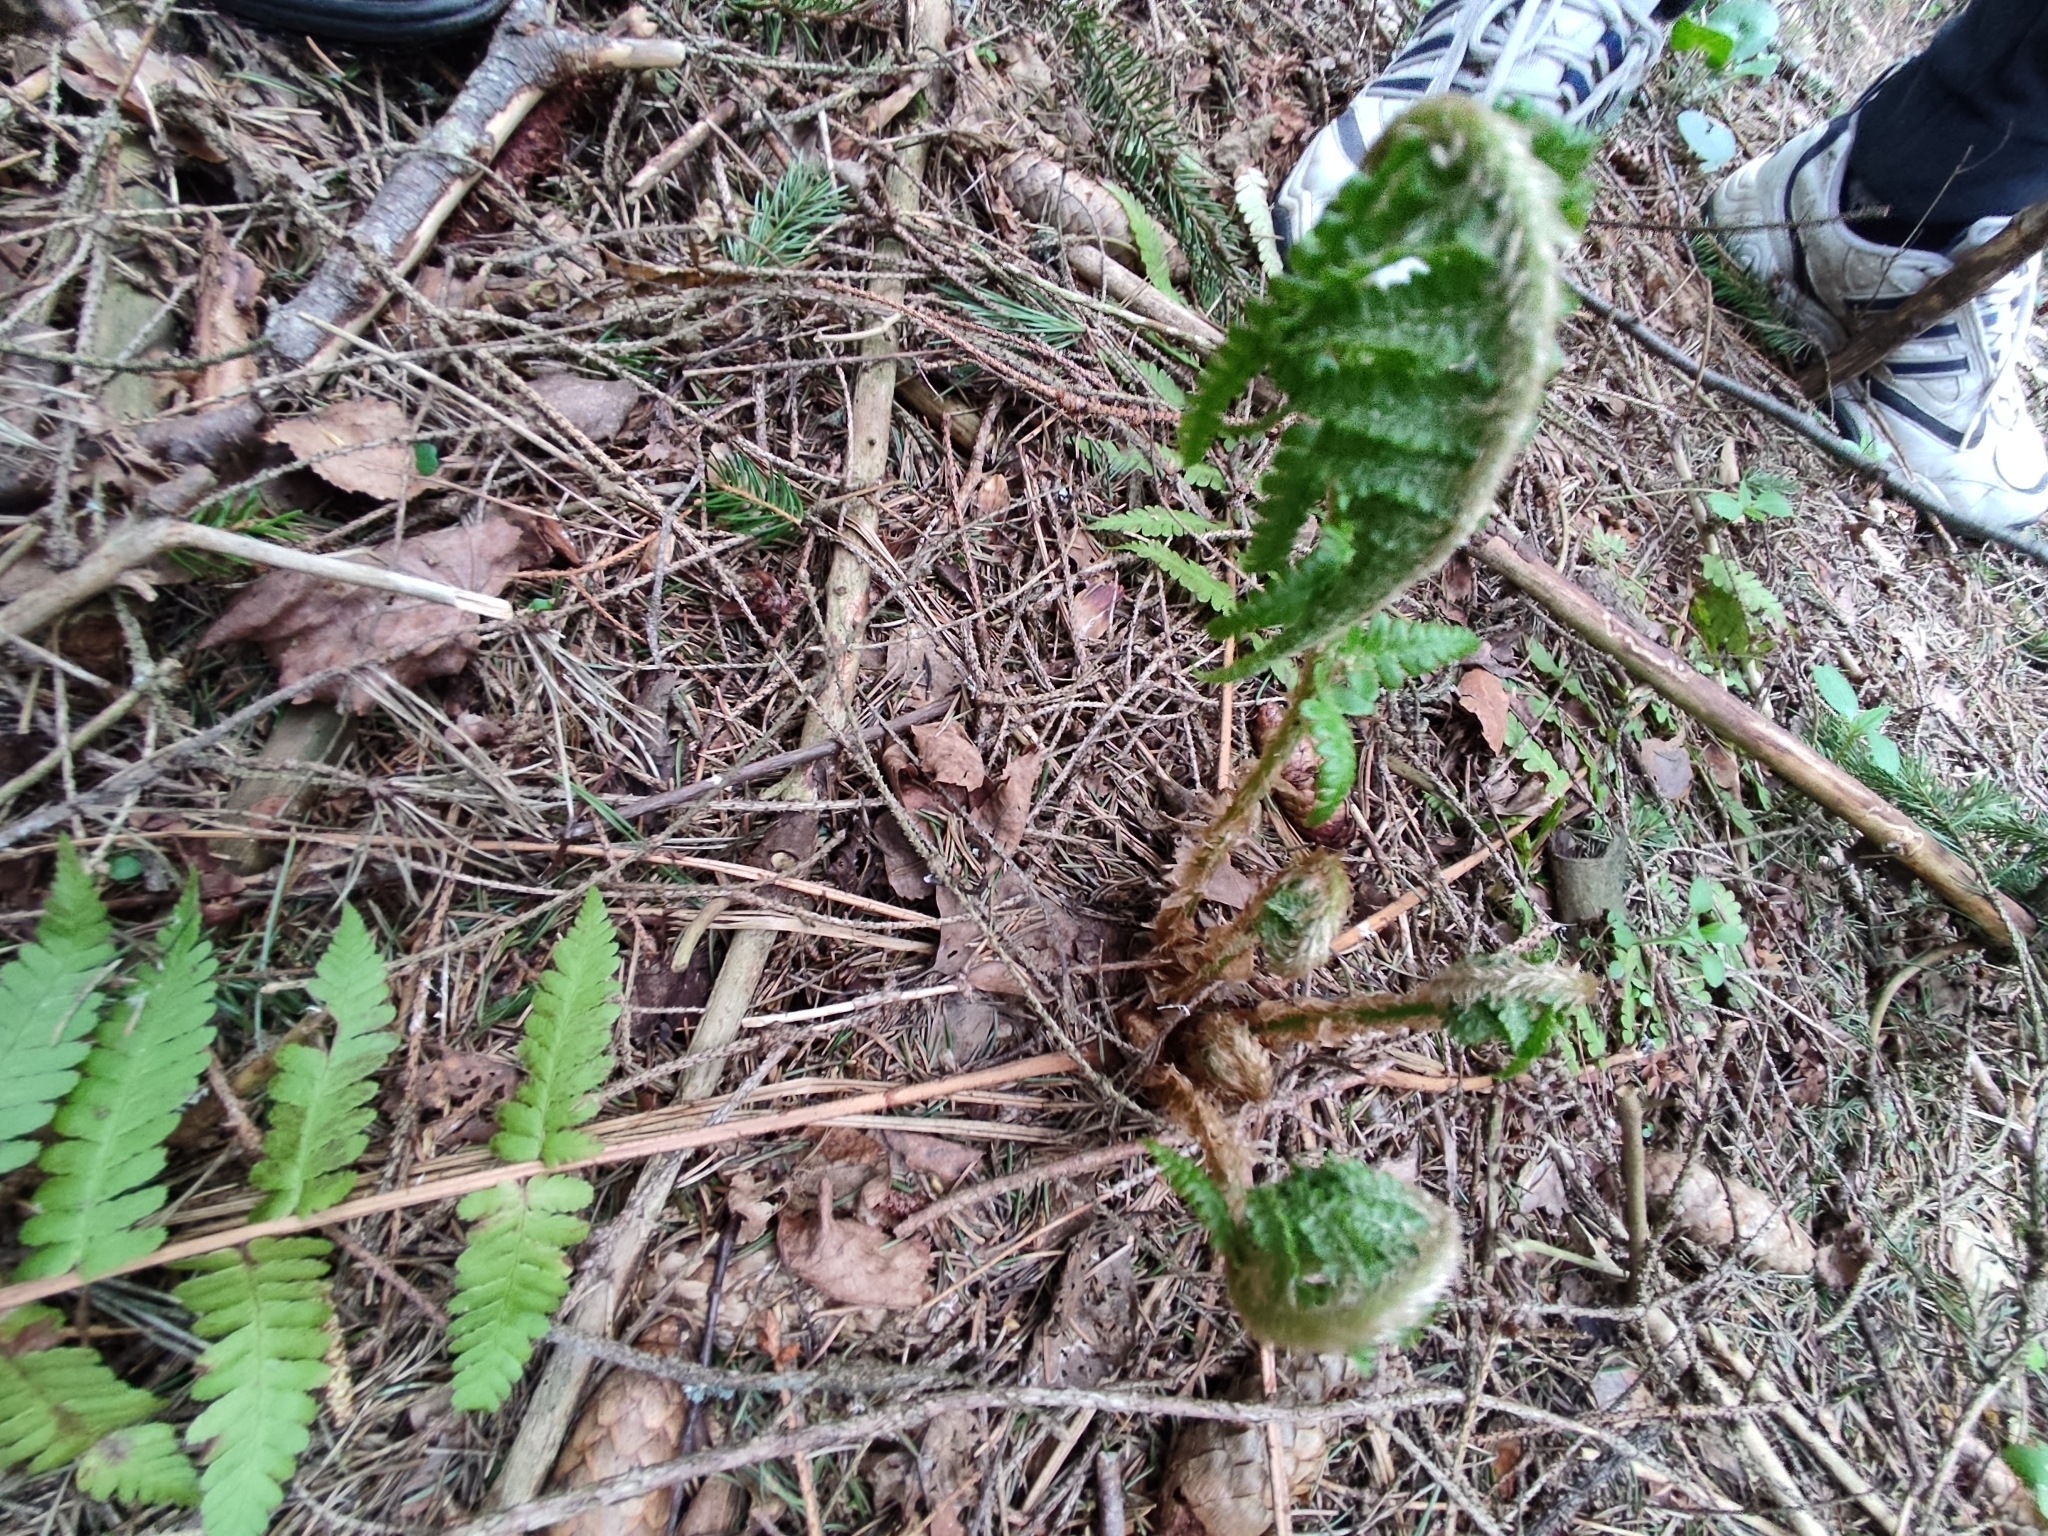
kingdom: Plantae
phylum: Tracheophyta
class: Polypodiopsida
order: Polypodiales
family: Dryopteridaceae
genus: Dryopteris
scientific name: Dryopteris filix-mas
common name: Male fern
